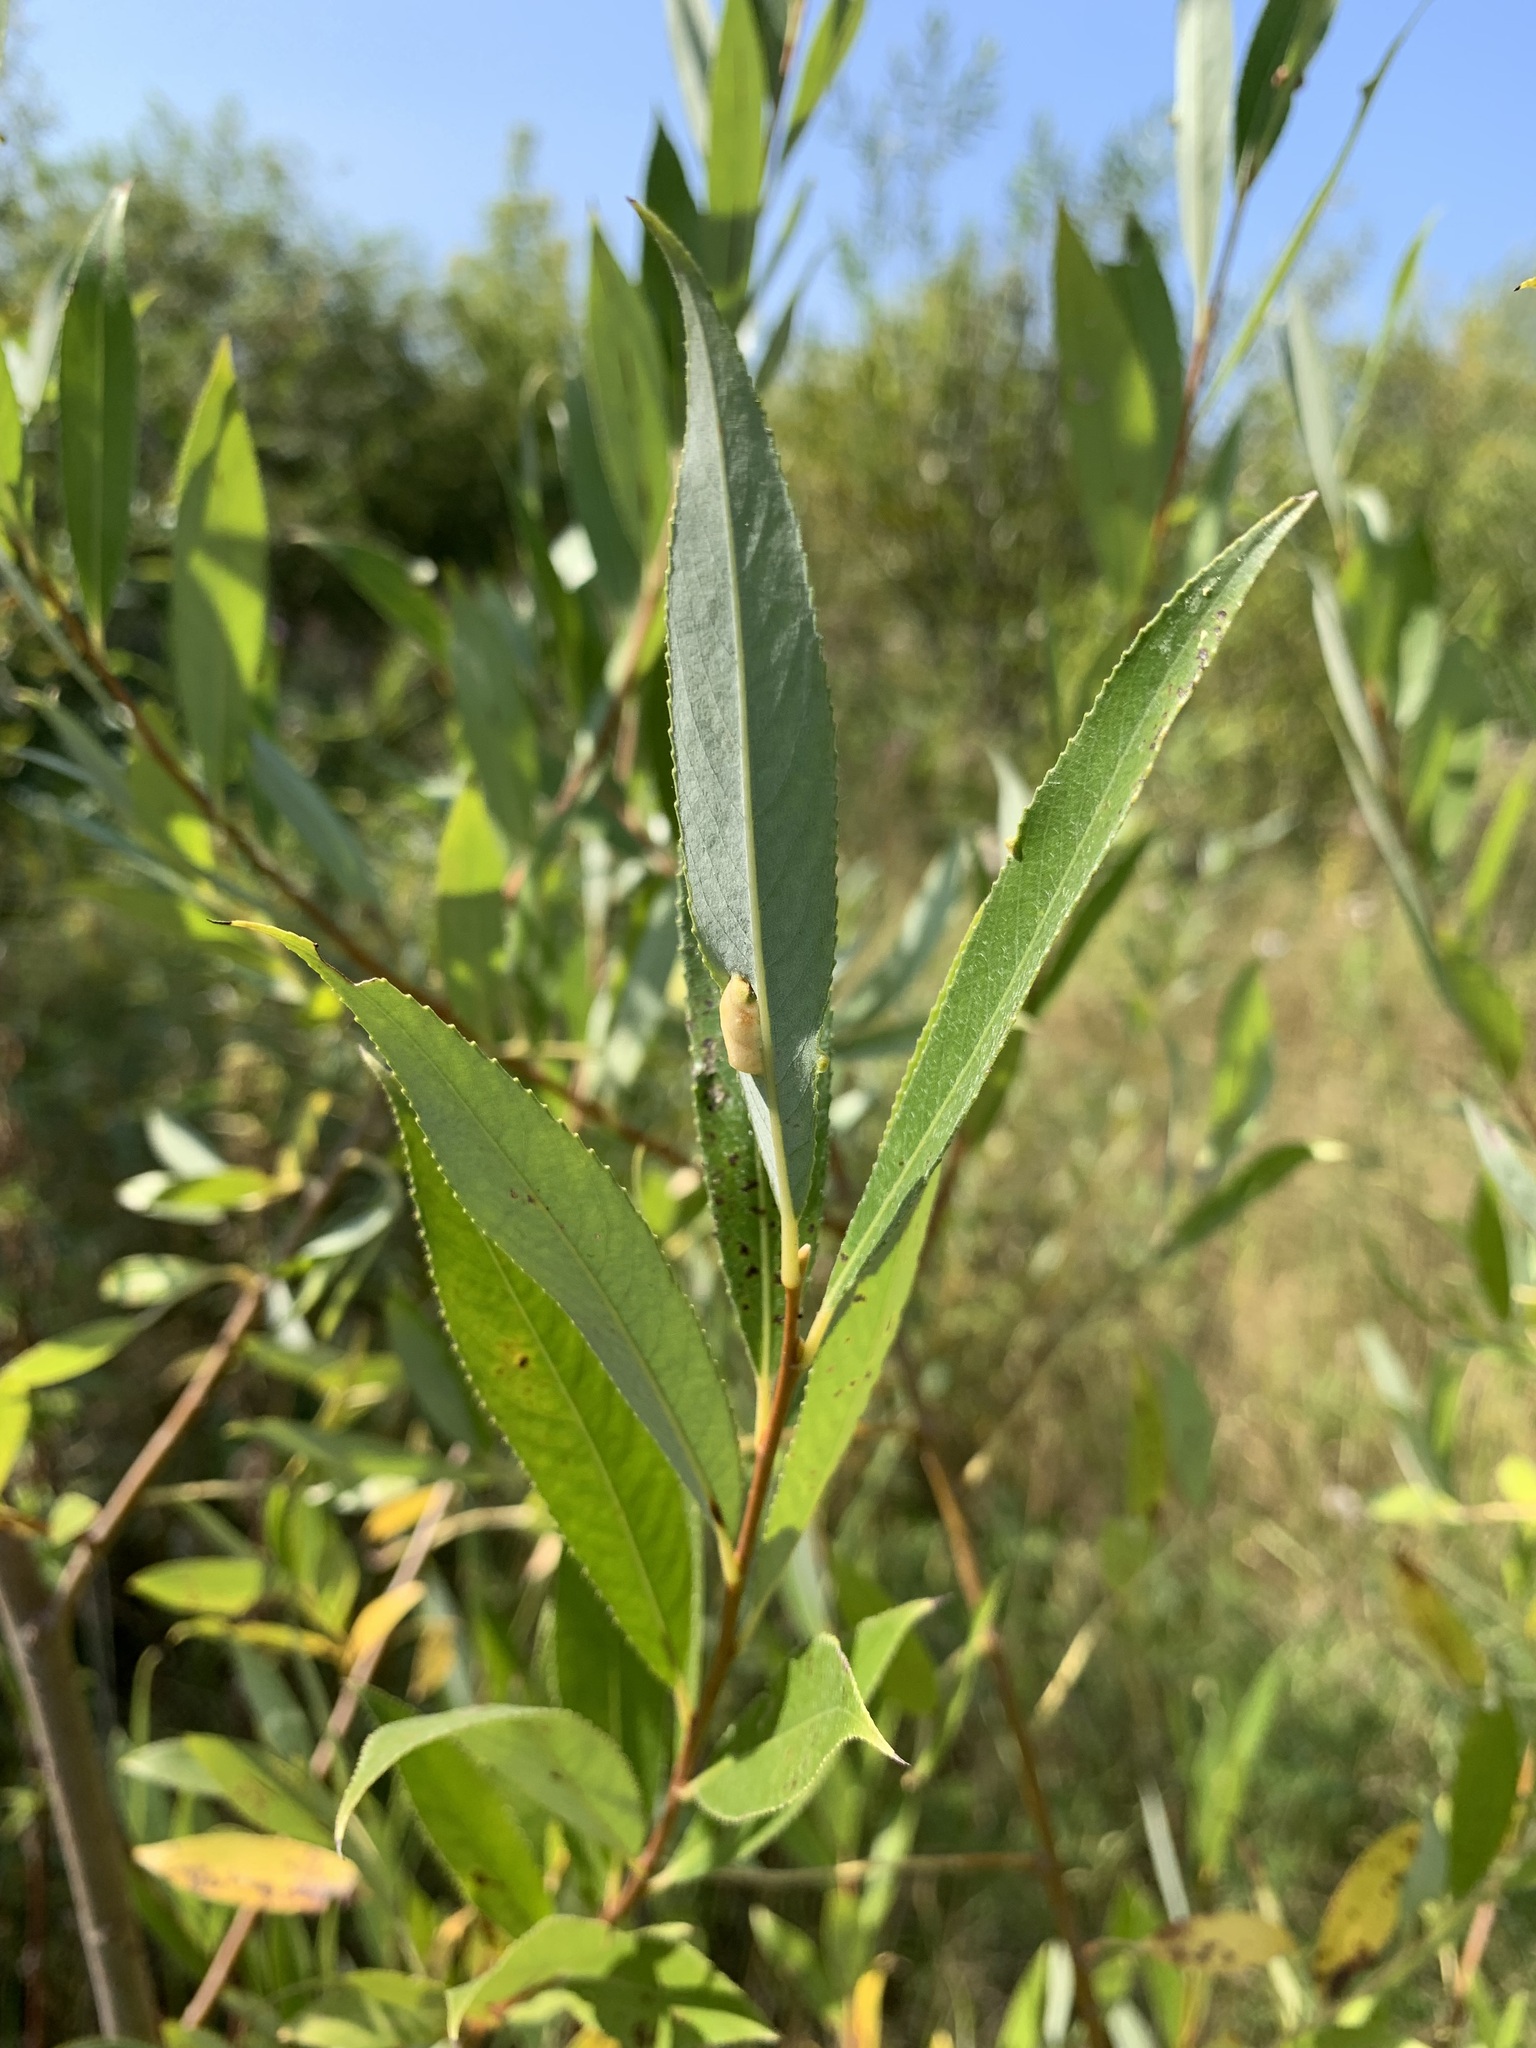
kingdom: Plantae
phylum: Tracheophyta
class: Magnoliopsida
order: Malpighiales
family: Salicaceae
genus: Salix
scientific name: Salix triandra
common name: Almond willow
